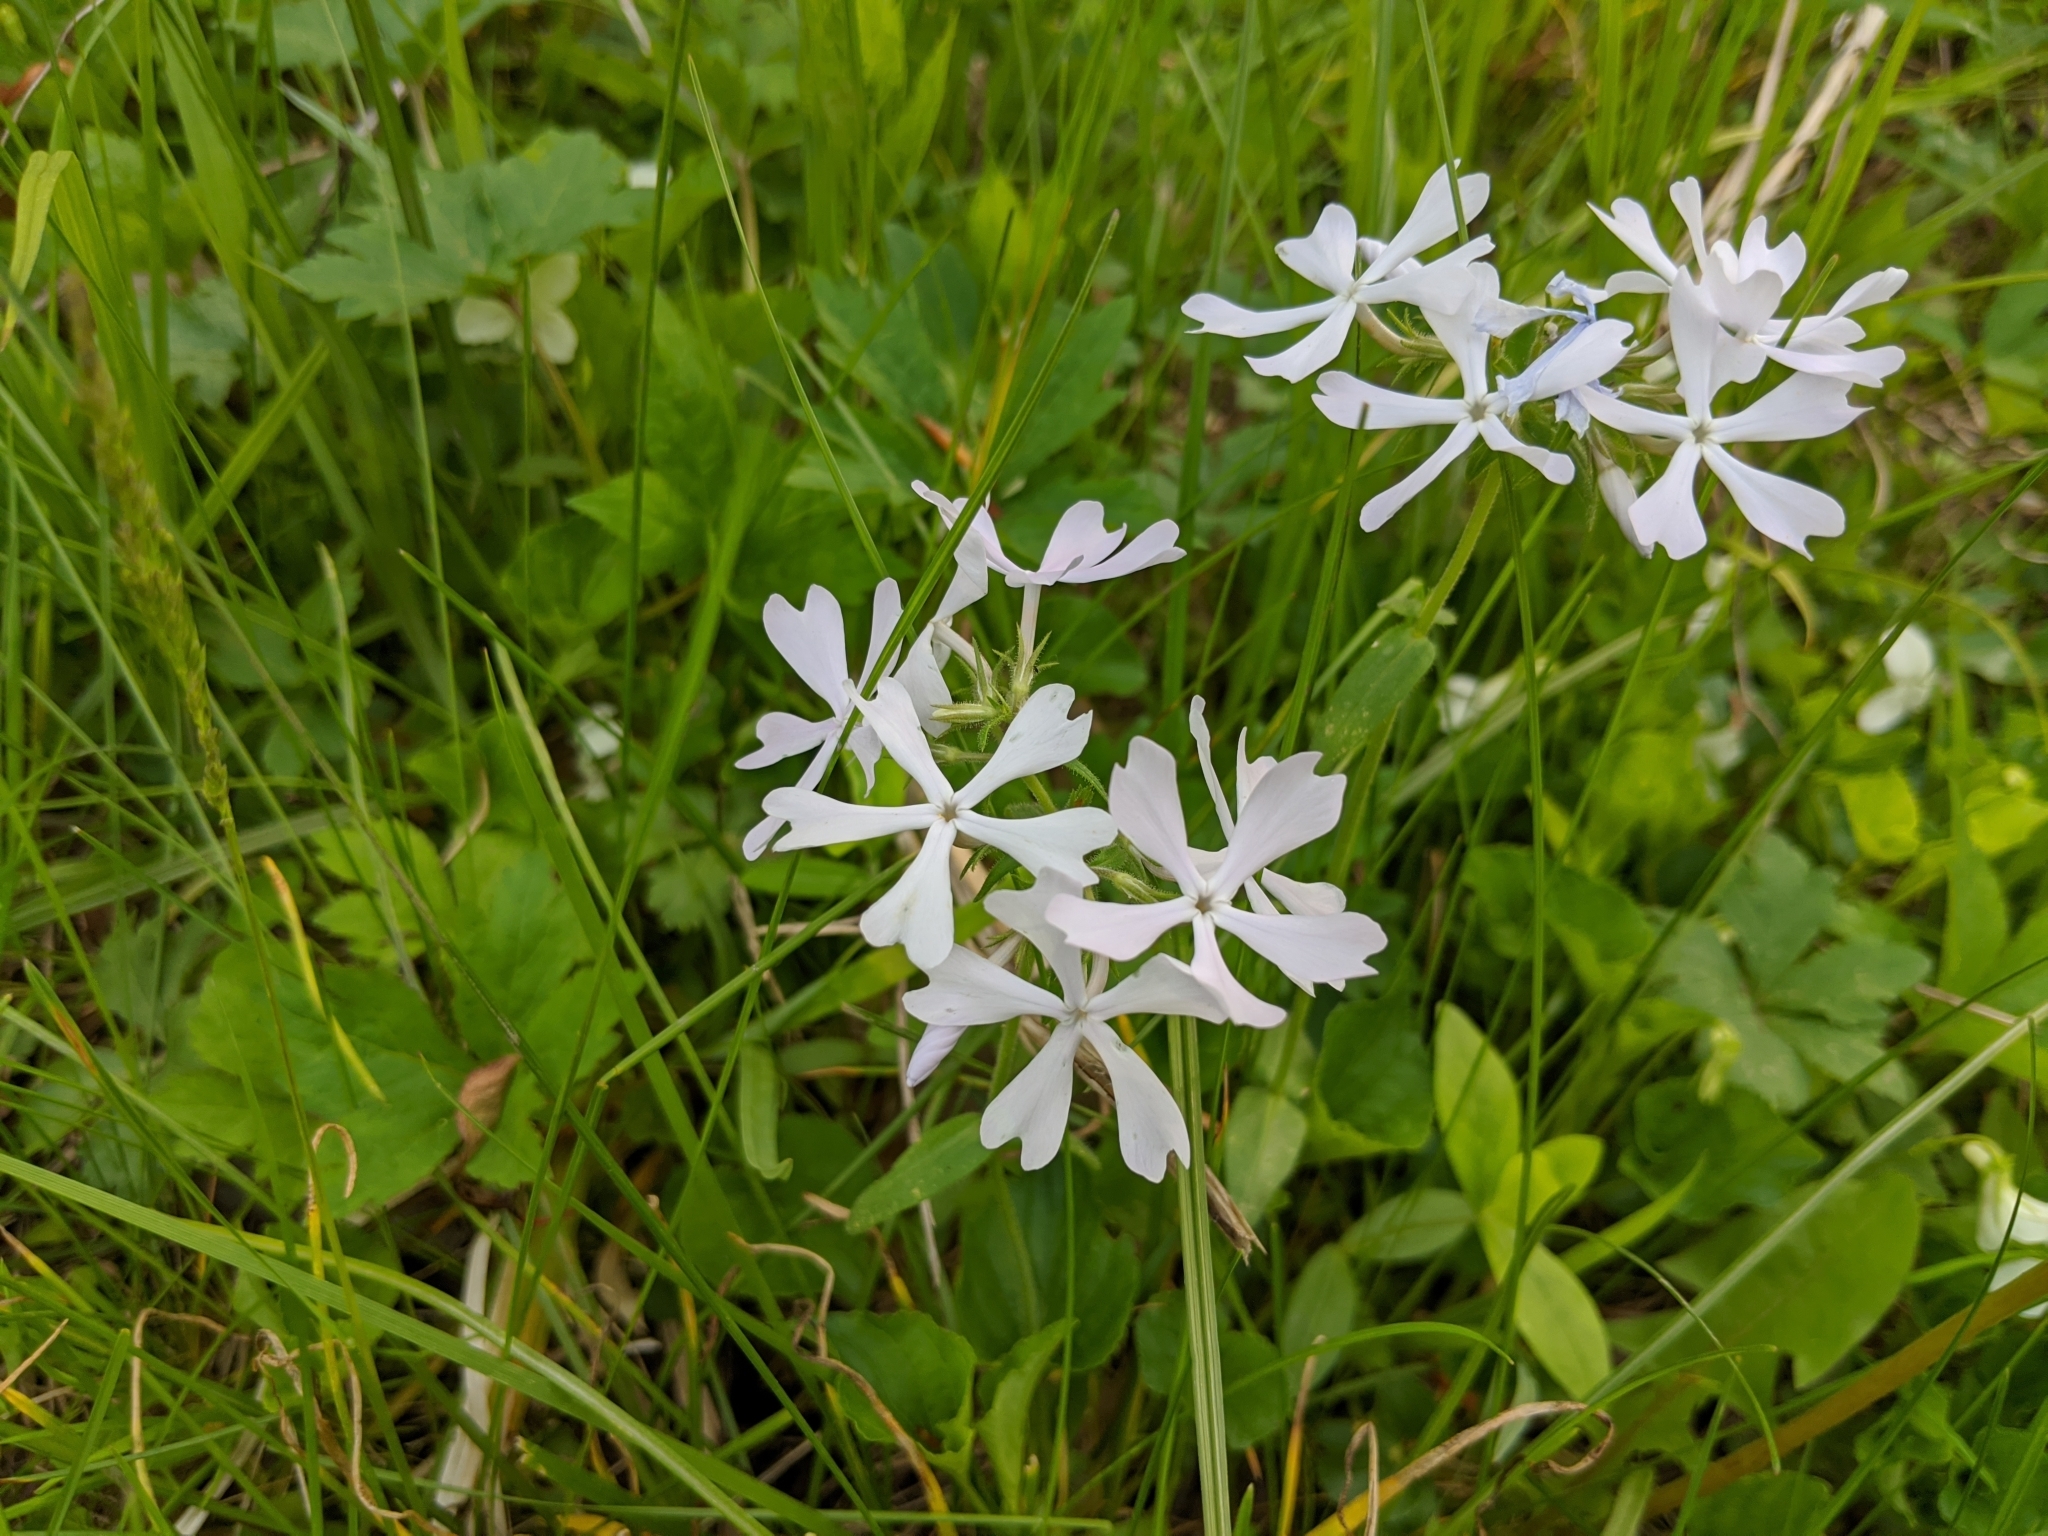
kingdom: Plantae
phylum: Tracheophyta
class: Magnoliopsida
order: Ericales
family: Polemoniaceae
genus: Phlox
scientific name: Phlox divaricata
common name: Blue phlox
